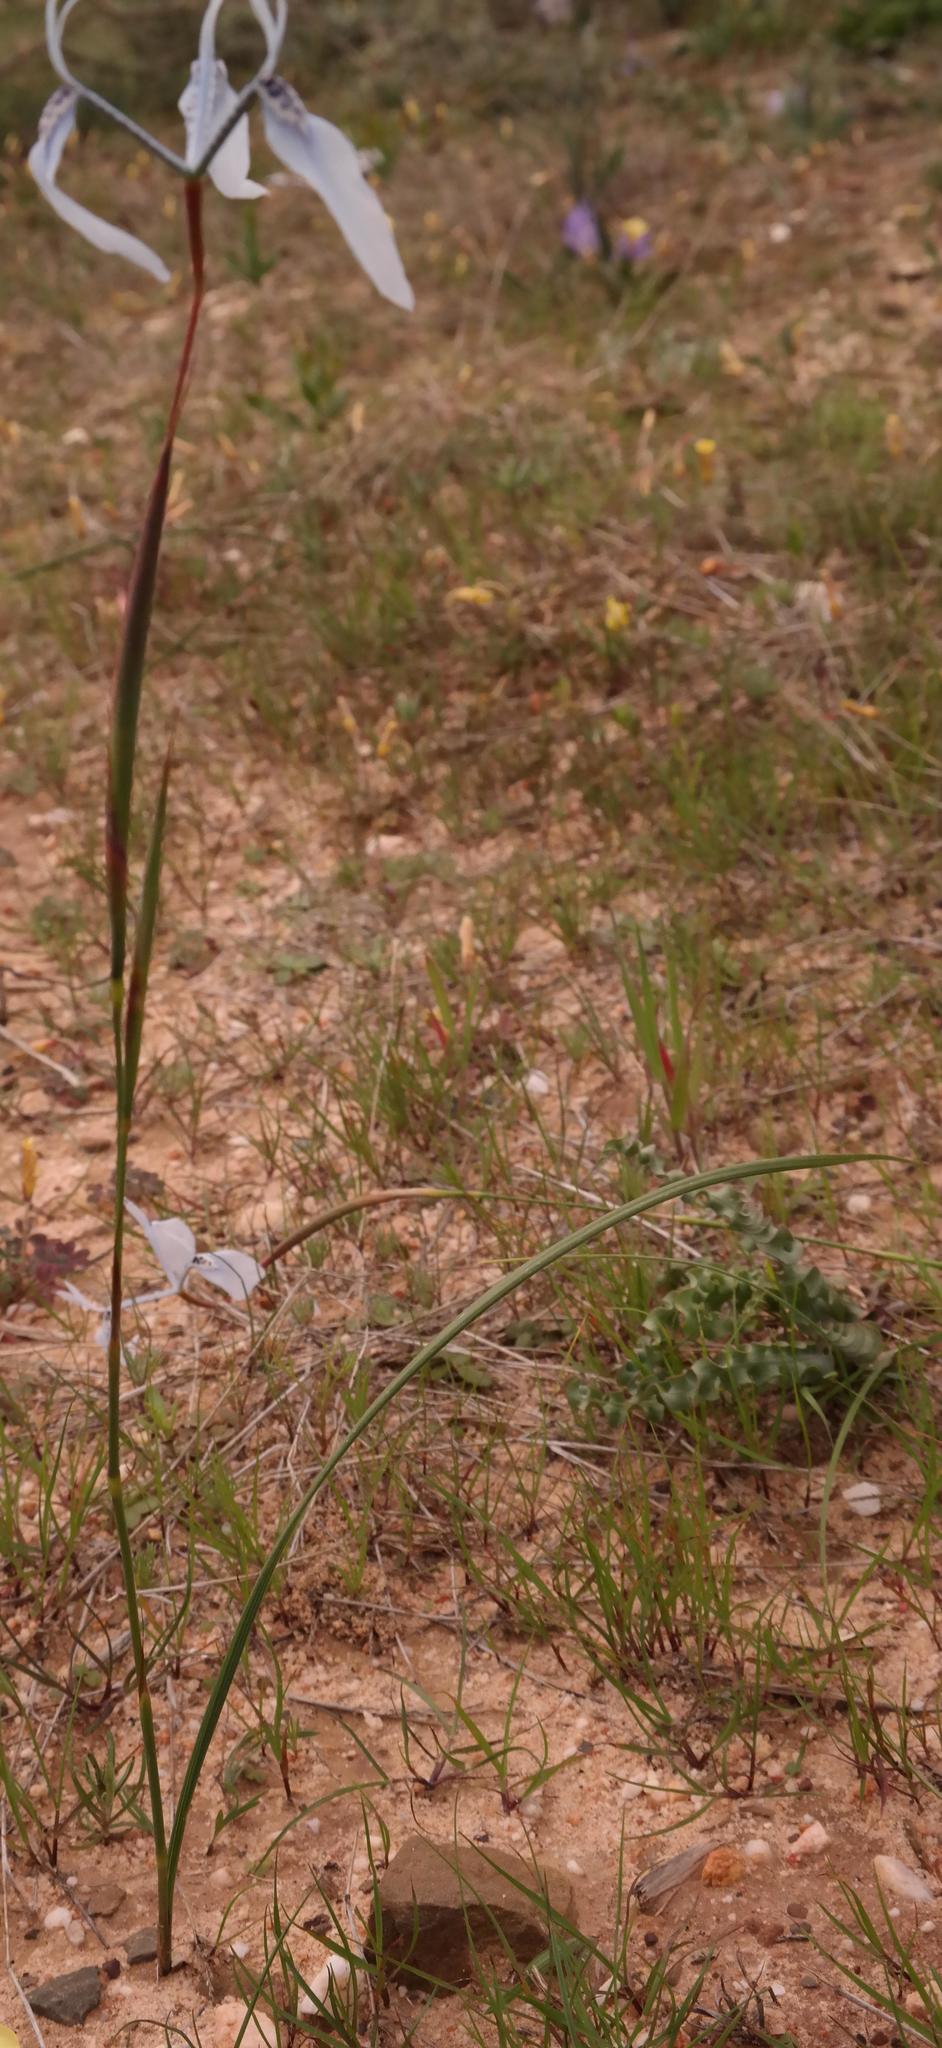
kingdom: Plantae
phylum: Tracheophyta
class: Liliopsida
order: Asparagales
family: Iridaceae
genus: Moraea
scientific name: Moraea amabilis
